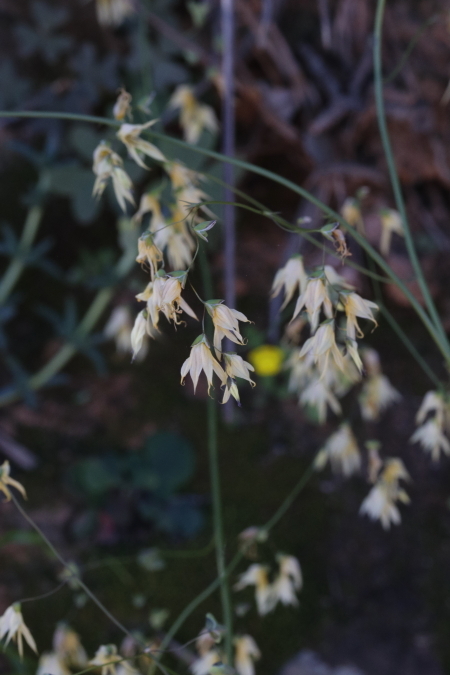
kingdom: Plantae
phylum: Tracheophyta
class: Liliopsida
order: Asparagales
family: Iridaceae
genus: Melasphaerula
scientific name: Melasphaerula graminea
